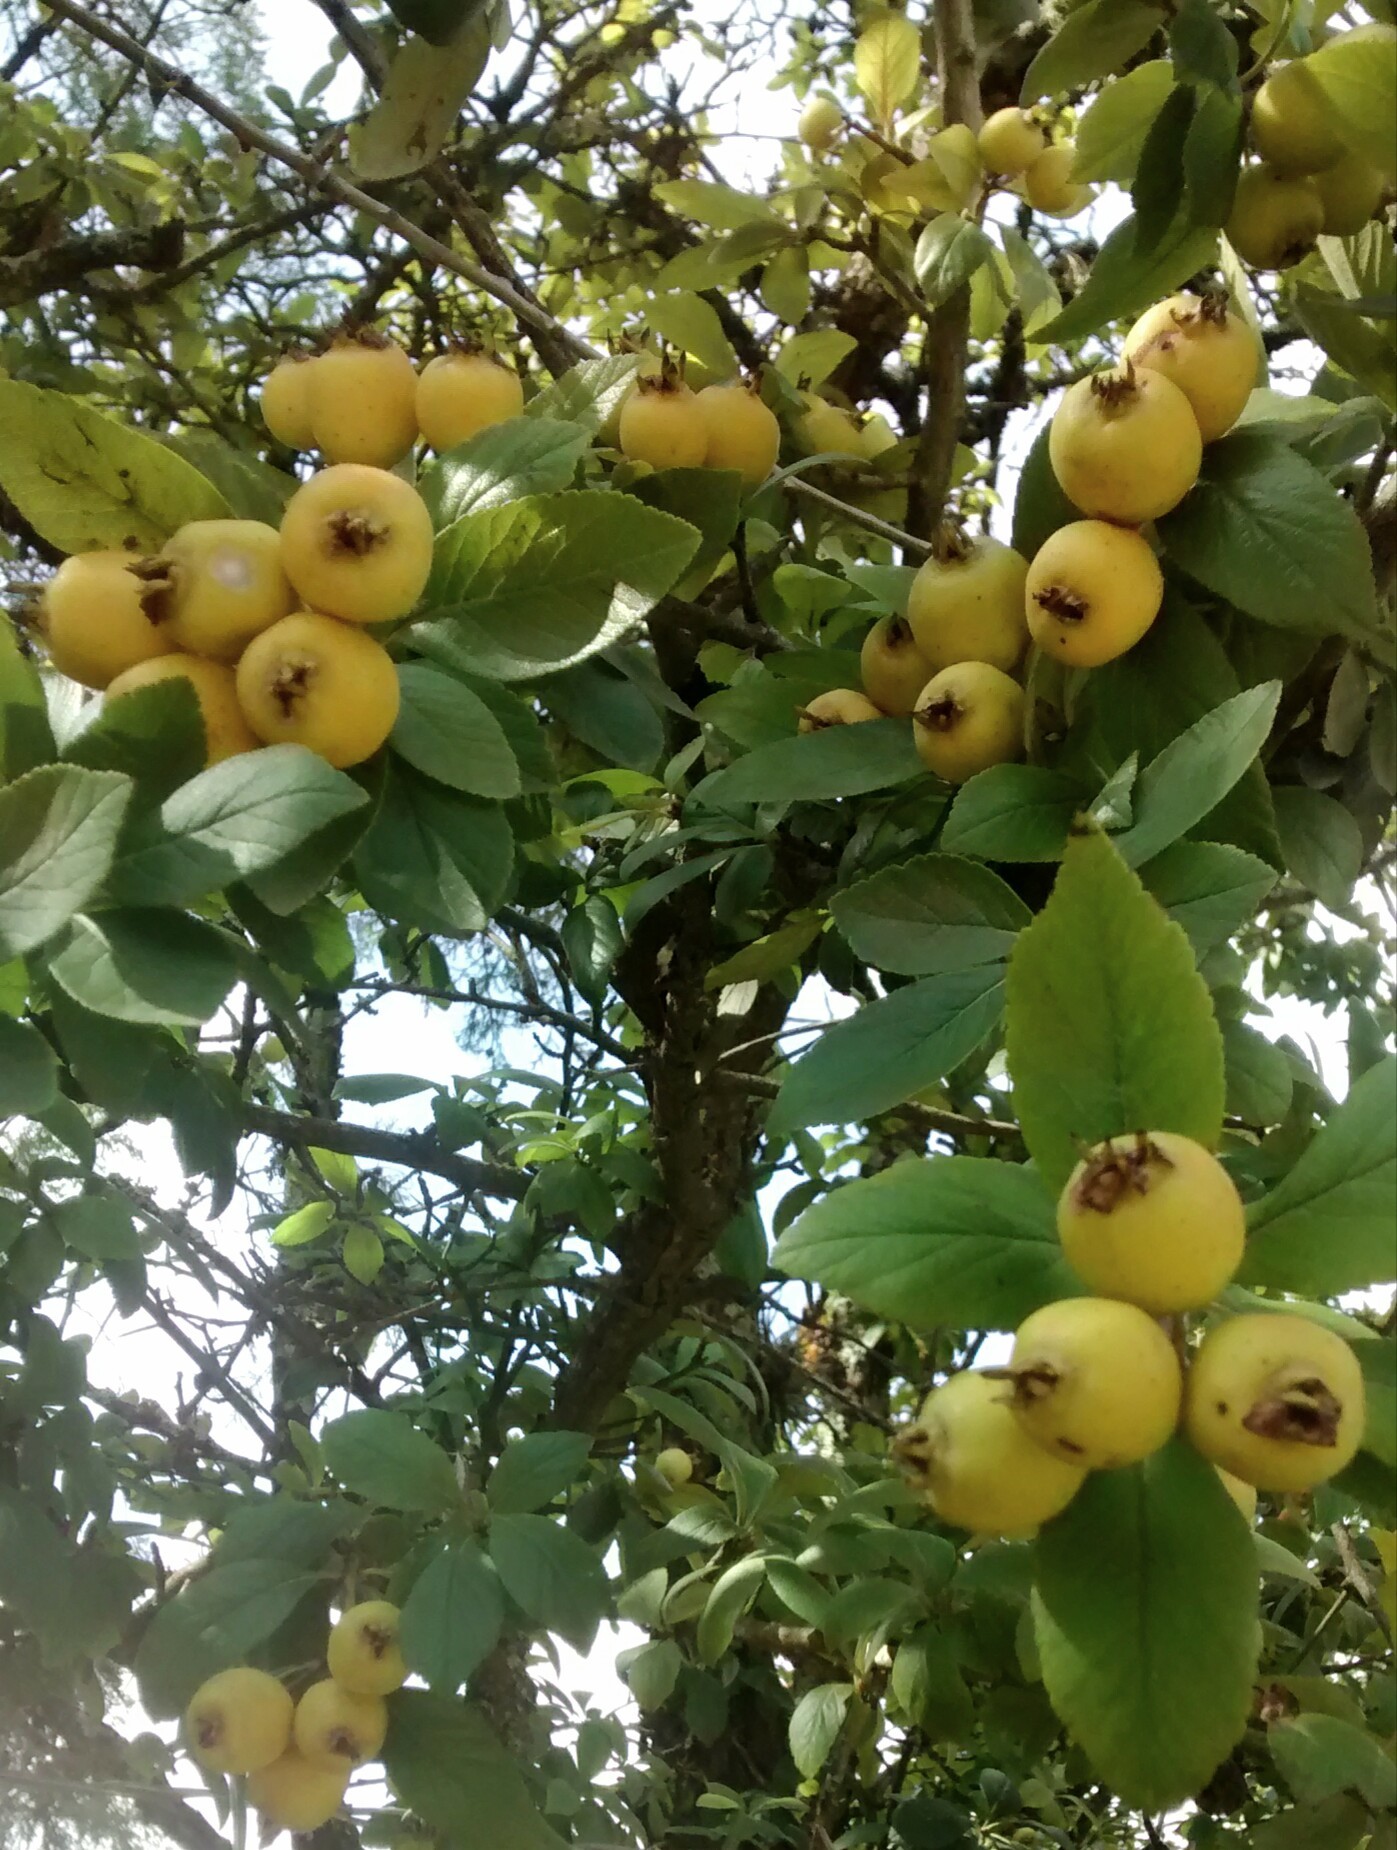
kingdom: Plantae
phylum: Tracheophyta
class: Magnoliopsida
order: Rosales
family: Rosaceae
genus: Rhaphiolepis
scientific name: Rhaphiolepis bibas
